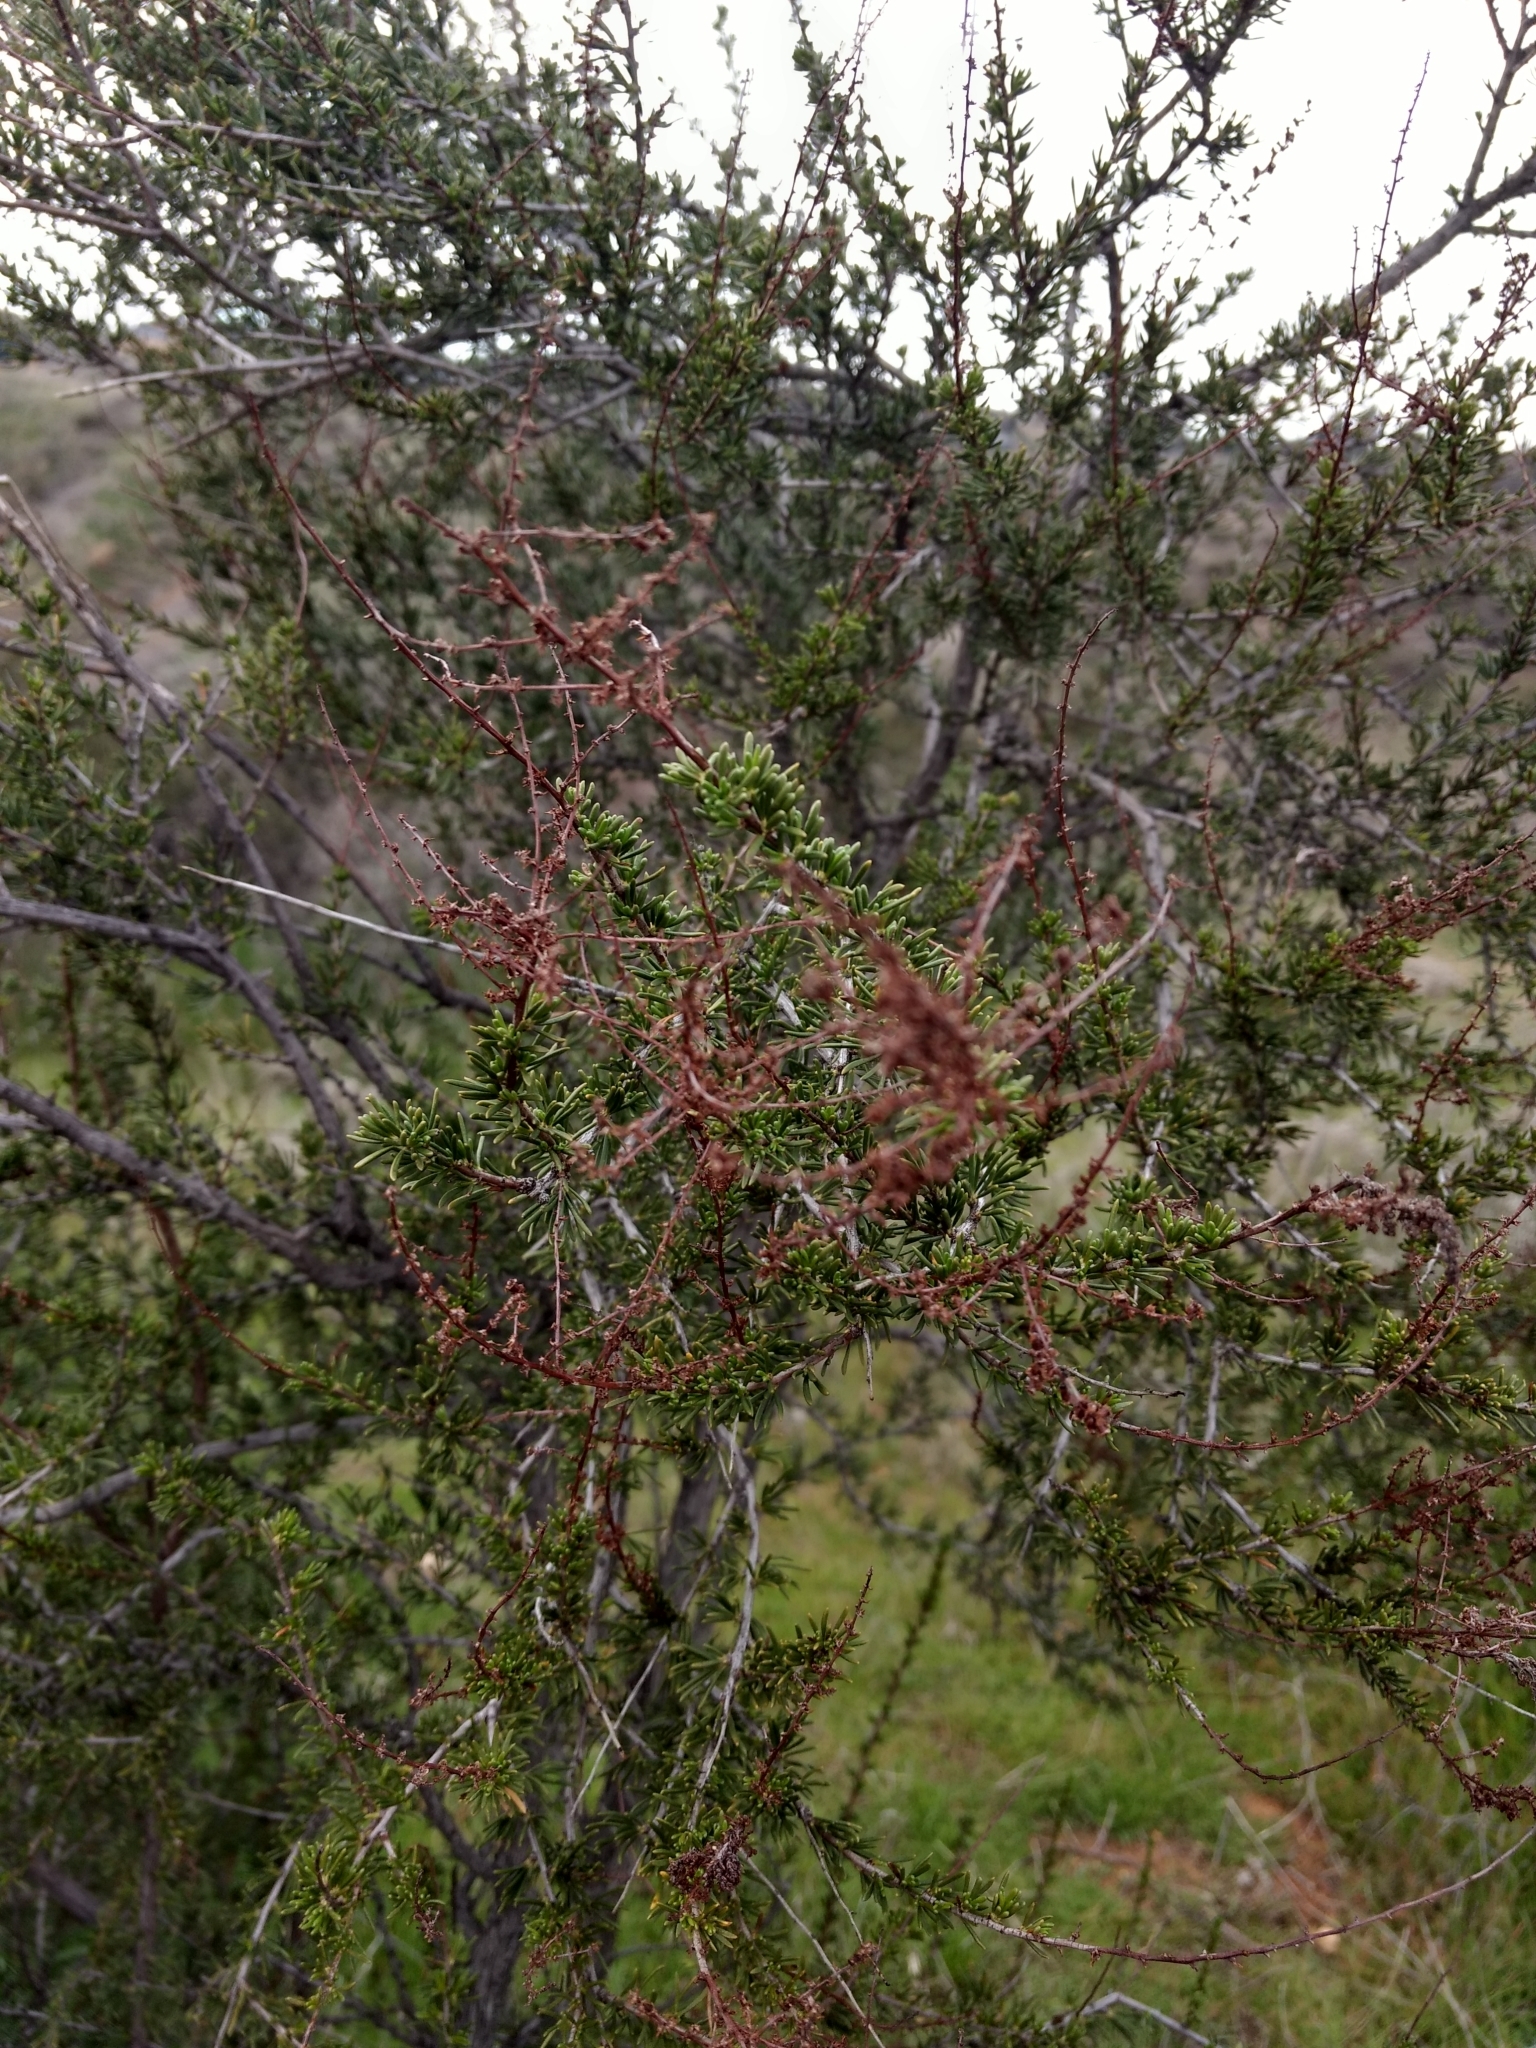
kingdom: Plantae
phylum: Tracheophyta
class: Magnoliopsida
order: Rosales
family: Rosaceae
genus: Adenostoma
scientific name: Adenostoma fasciculatum
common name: Chamise
